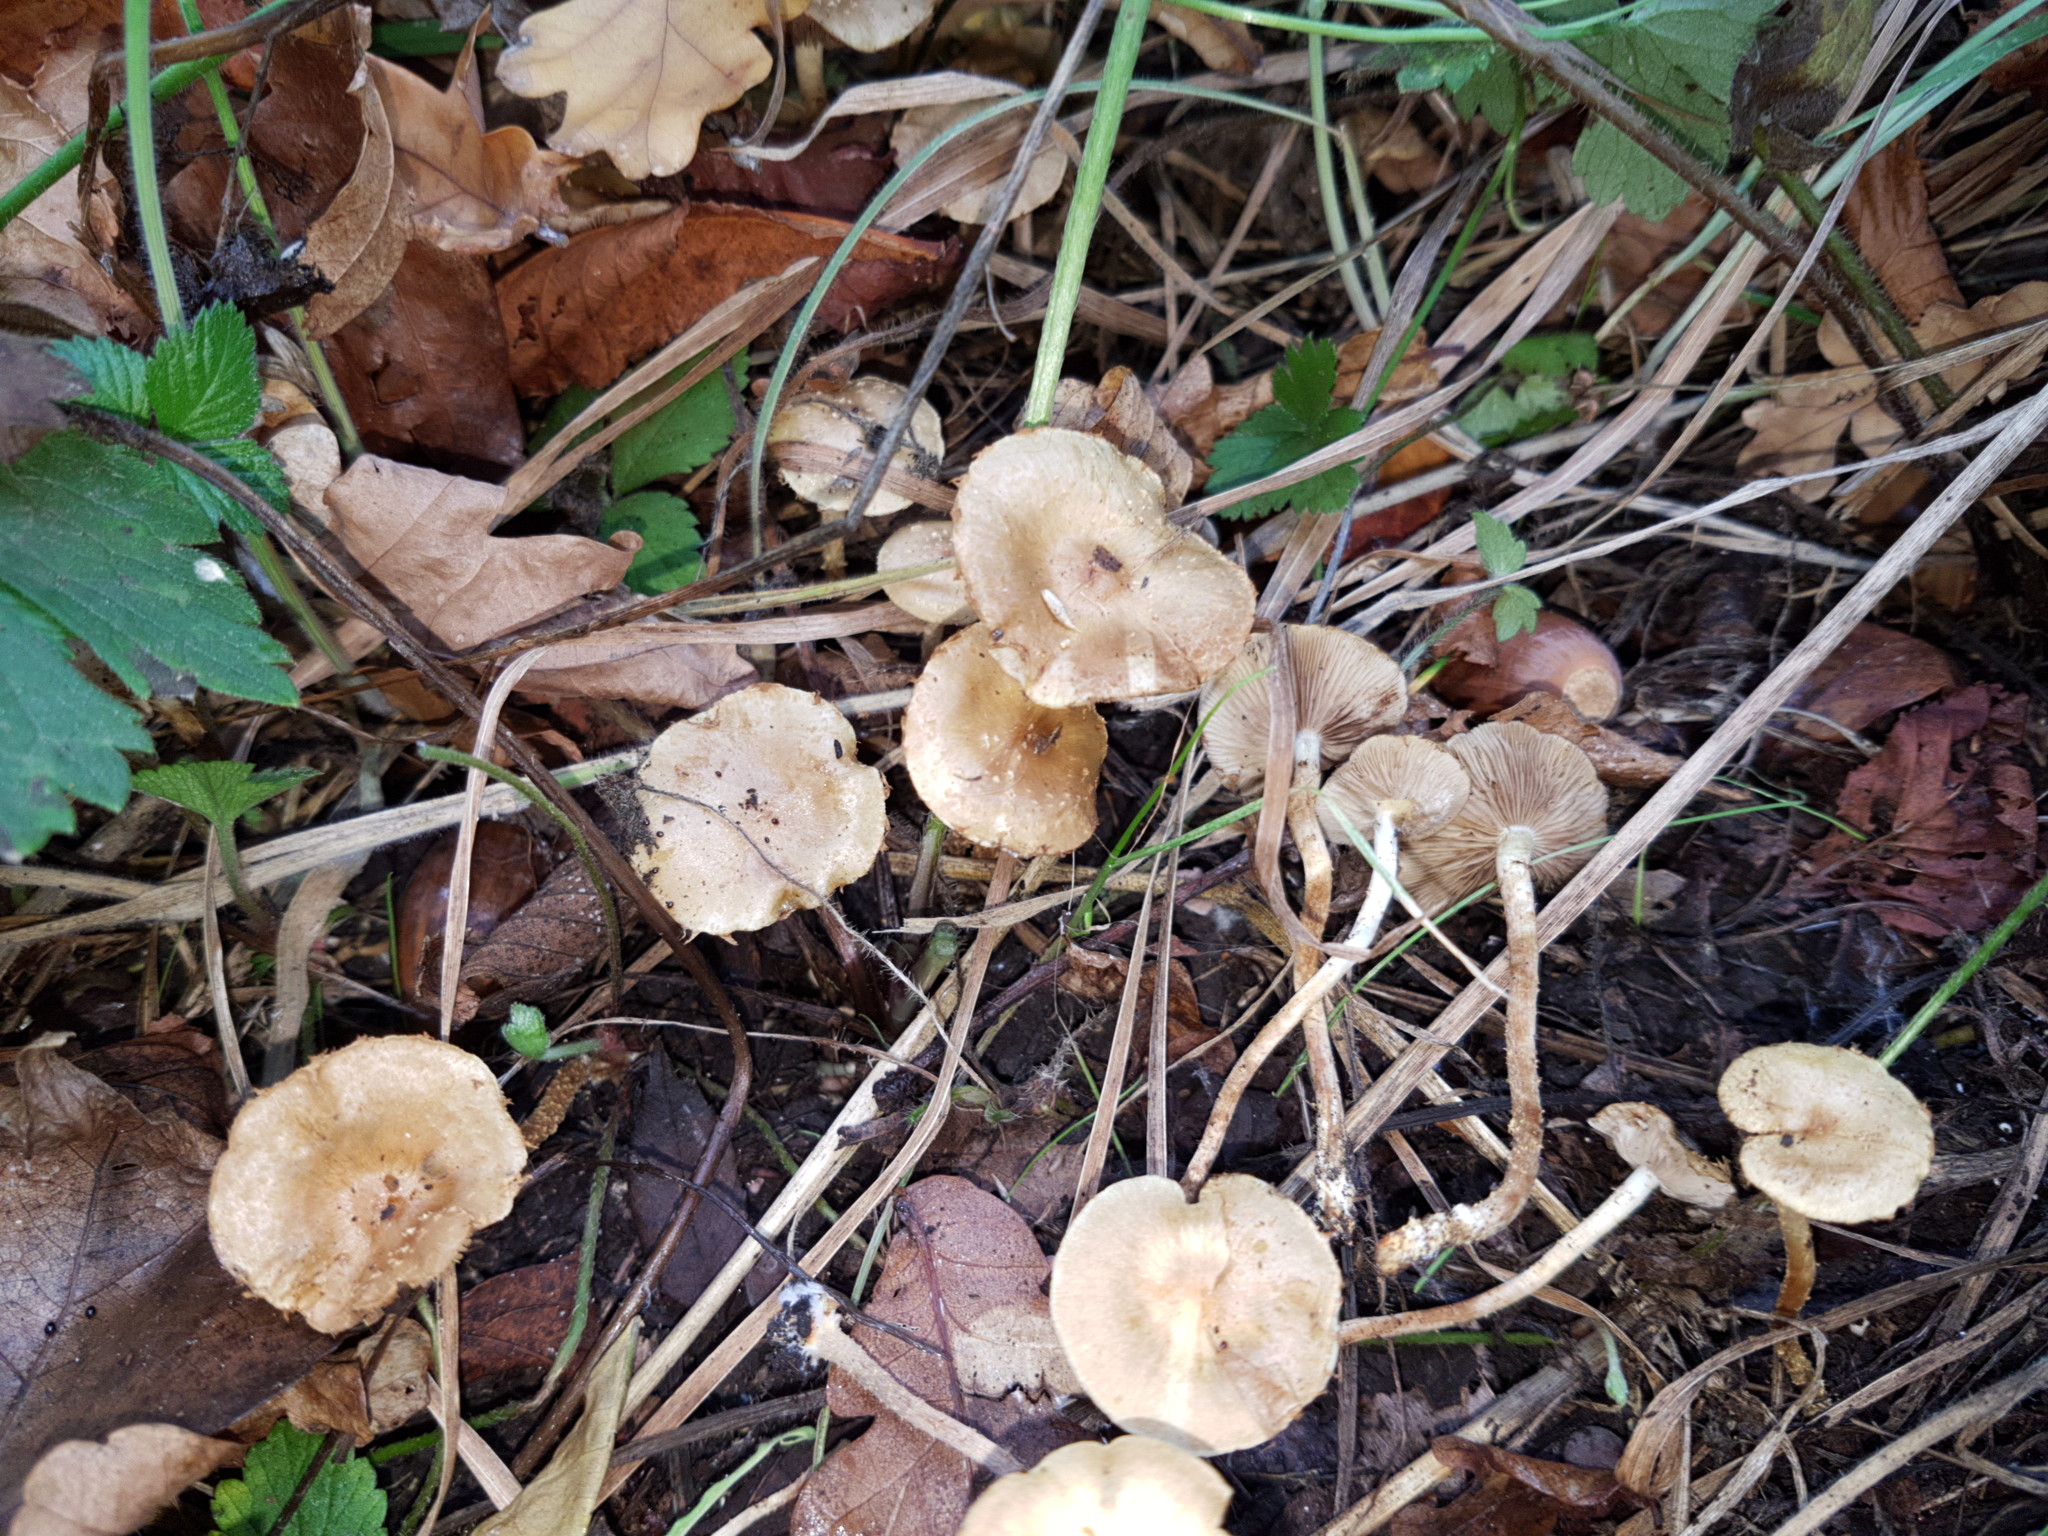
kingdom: Fungi
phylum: Basidiomycota
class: Agaricomycetes
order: Agaricales
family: Strophariaceae
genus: Pholiota
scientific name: Pholiota subflammans
